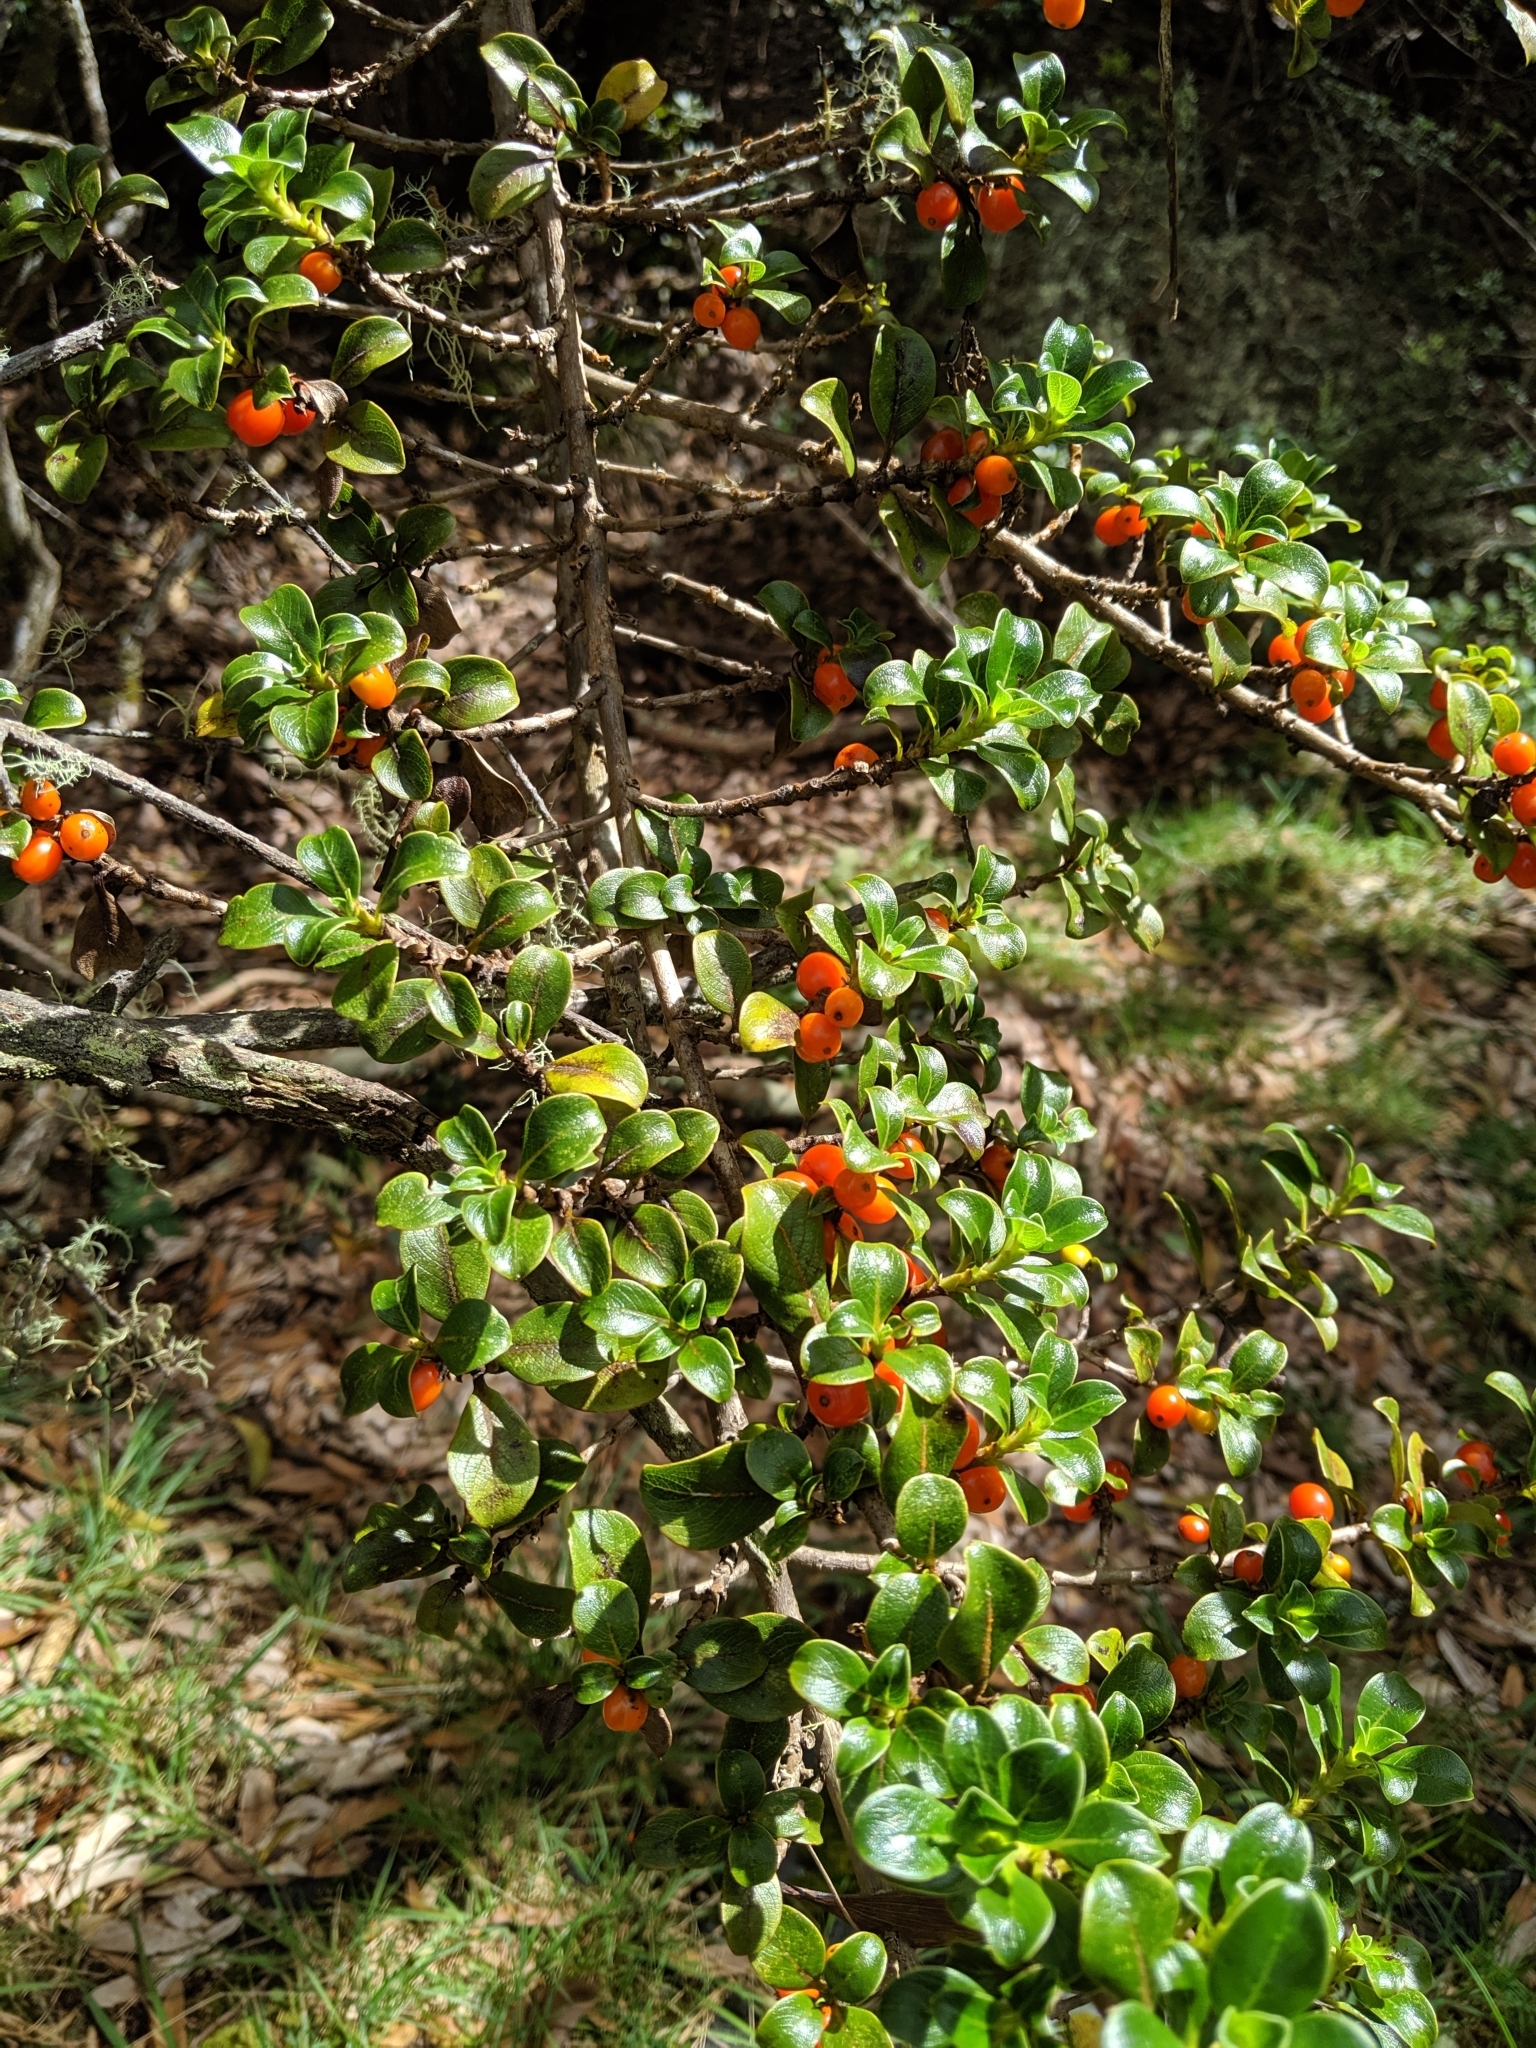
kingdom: Plantae
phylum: Tracheophyta
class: Magnoliopsida
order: Gentianales
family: Rubiaceae
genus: Coprosma
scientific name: Coprosma montana
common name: Alpine mirror plant
